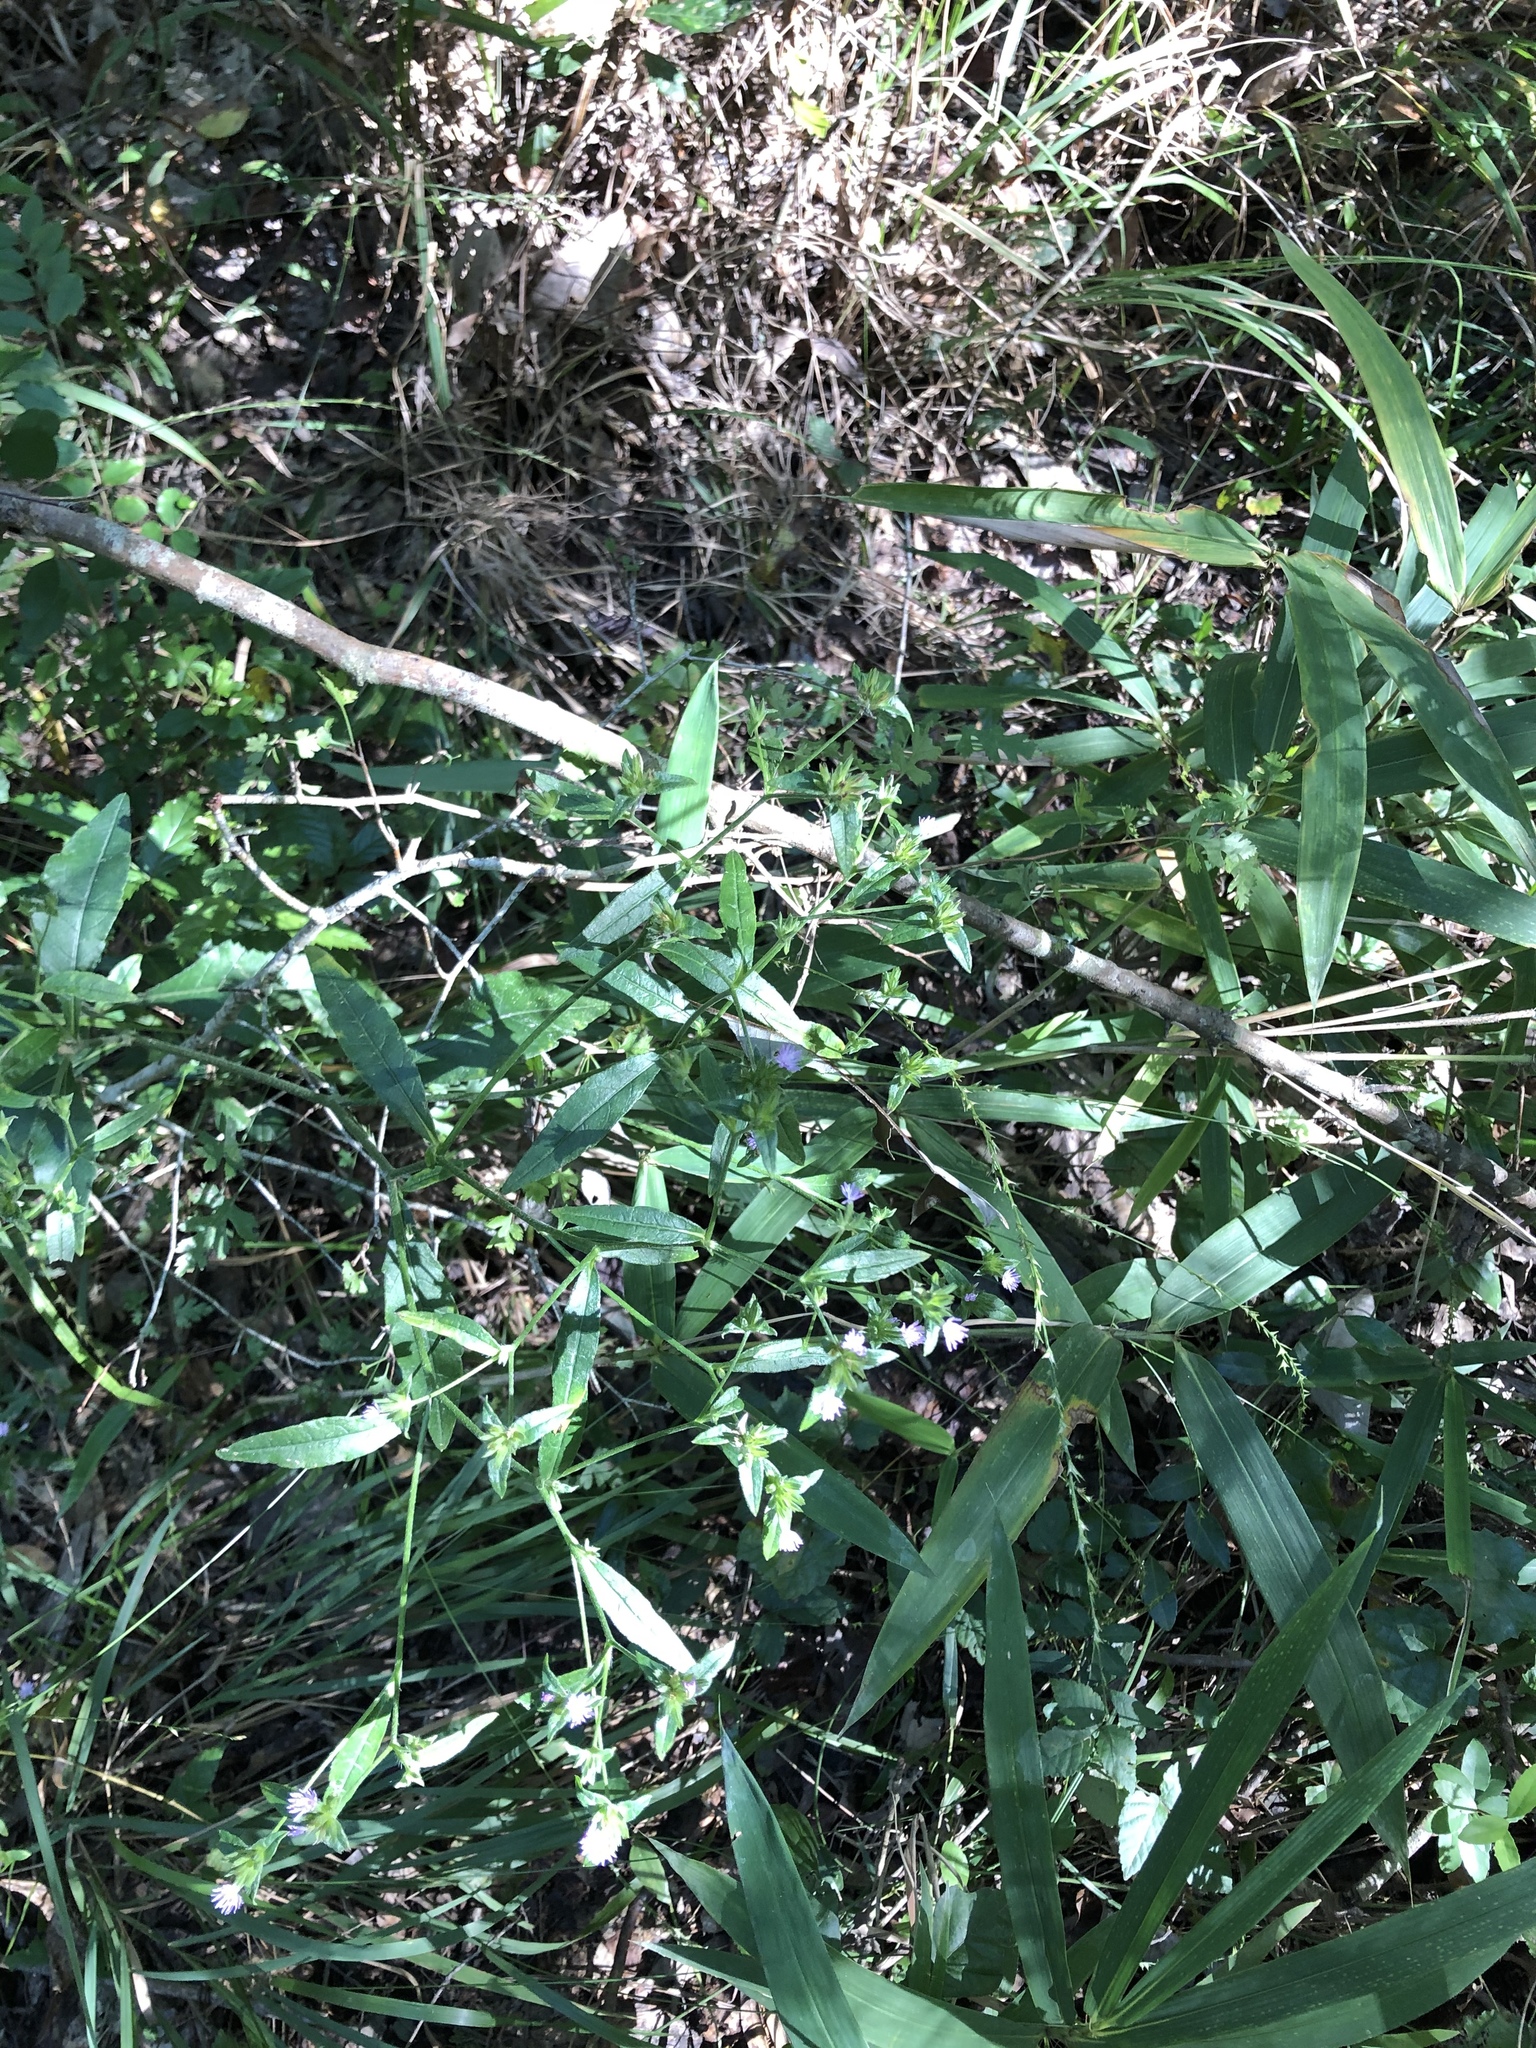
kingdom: Plantae
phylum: Tracheophyta
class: Magnoliopsida
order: Asterales
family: Asteraceae
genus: Elephantopus
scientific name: Elephantopus carolinianus
